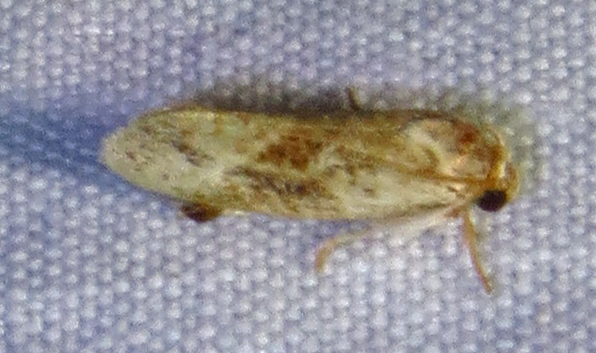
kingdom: Animalia
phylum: Arthropoda
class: Insecta
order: Lepidoptera
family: Tineidae
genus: Acrolophus
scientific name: Acrolophus mycetophagus
